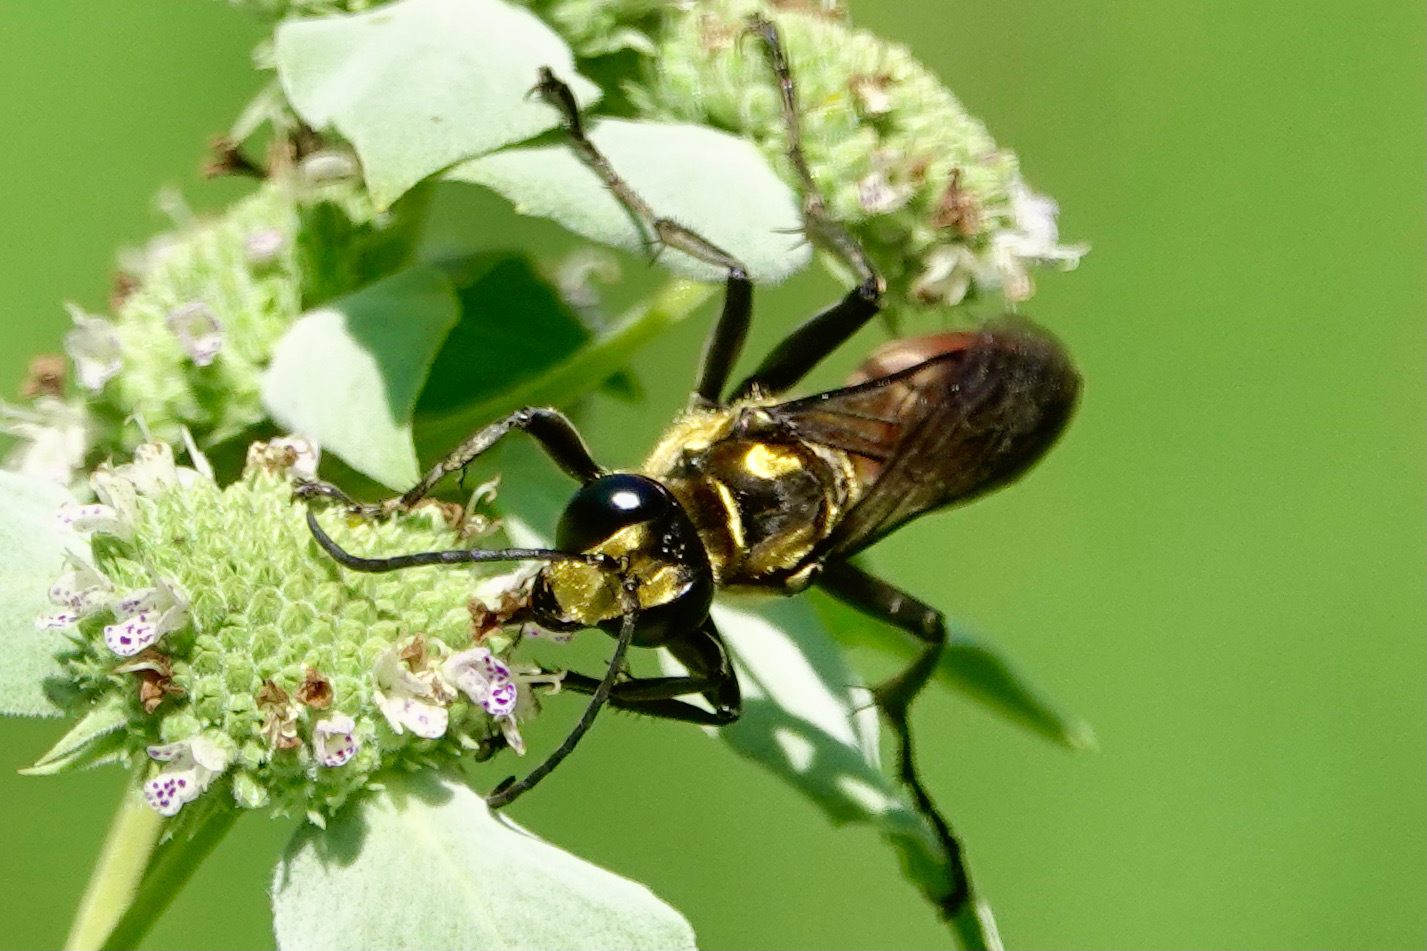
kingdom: Animalia
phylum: Arthropoda
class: Insecta
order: Hymenoptera
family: Sphecidae
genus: Sphex
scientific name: Sphex habenus
